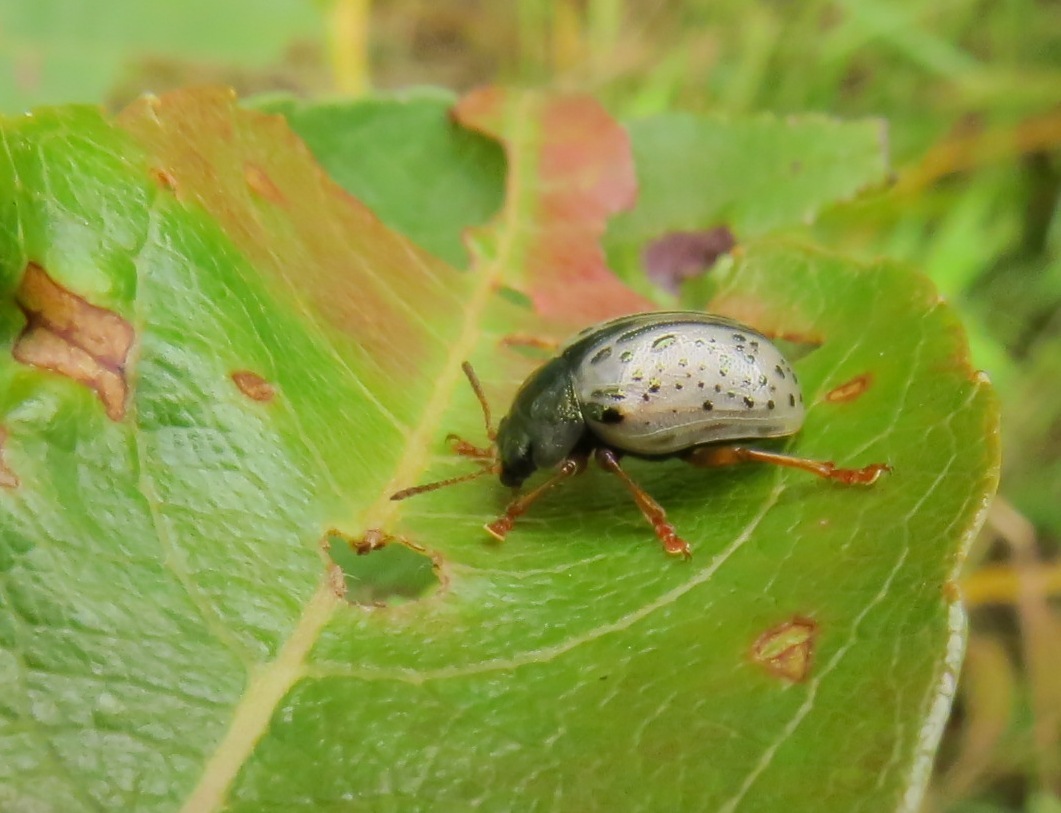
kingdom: Animalia
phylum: Arthropoda
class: Insecta
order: Coleoptera
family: Chrysomelidae
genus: Calligrapha
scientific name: Calligrapha multipunctata
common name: Common willow calligrapher beetle
